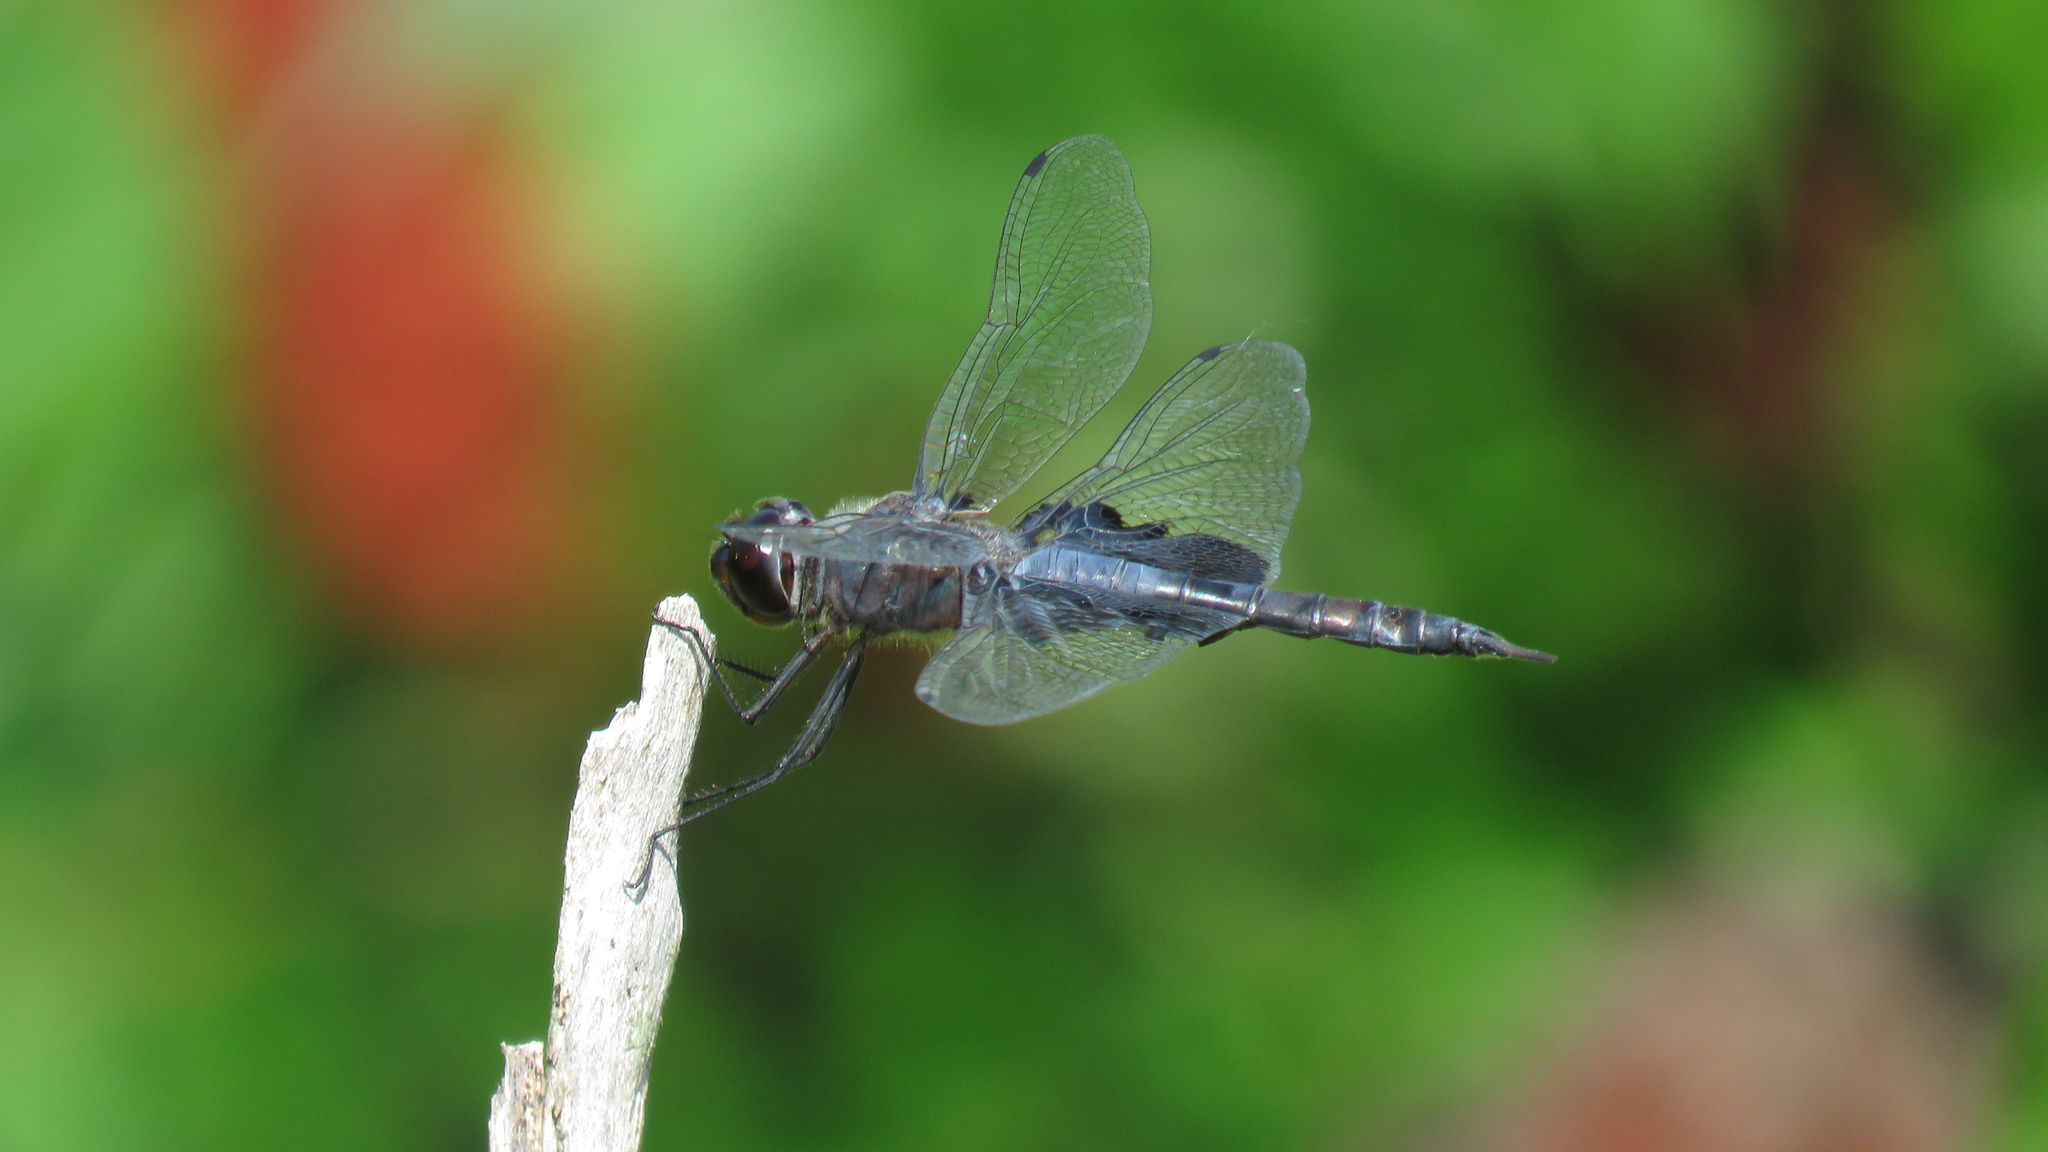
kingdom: Animalia
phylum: Arthropoda
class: Insecta
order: Odonata
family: Libellulidae
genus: Tramea
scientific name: Tramea lacerata
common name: Black saddlebags
